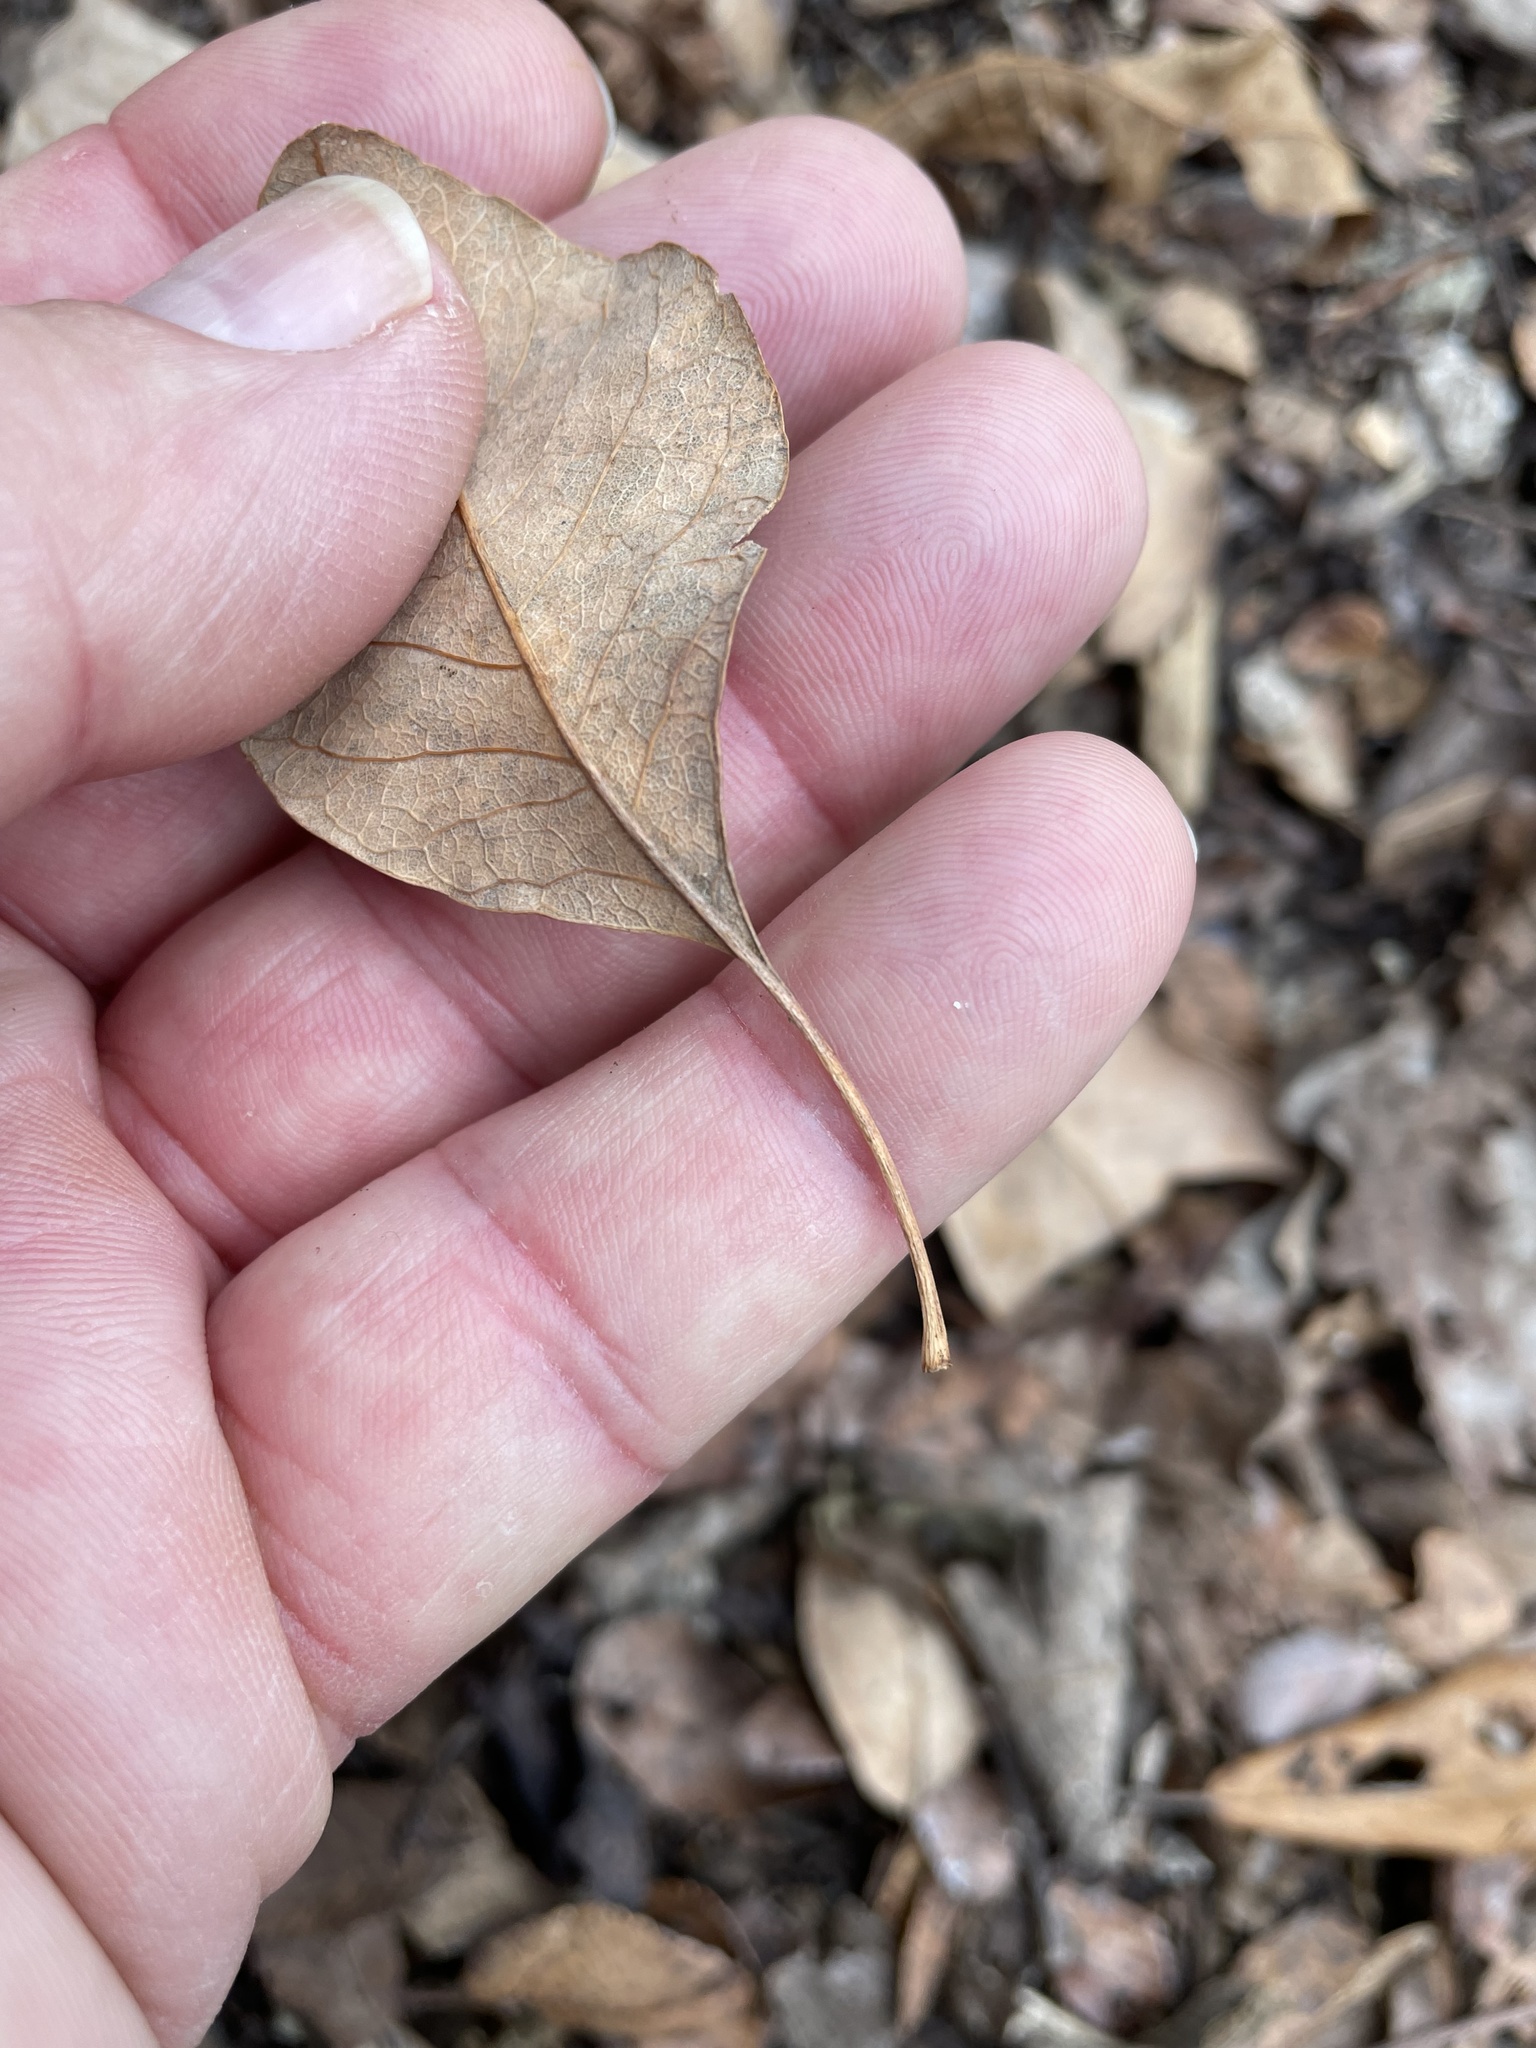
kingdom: Plantae
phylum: Tracheophyta
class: Magnoliopsida
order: Lamiales
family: Oleaceae
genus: Fraxinus
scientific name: Fraxinus albicans
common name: Texas ash
